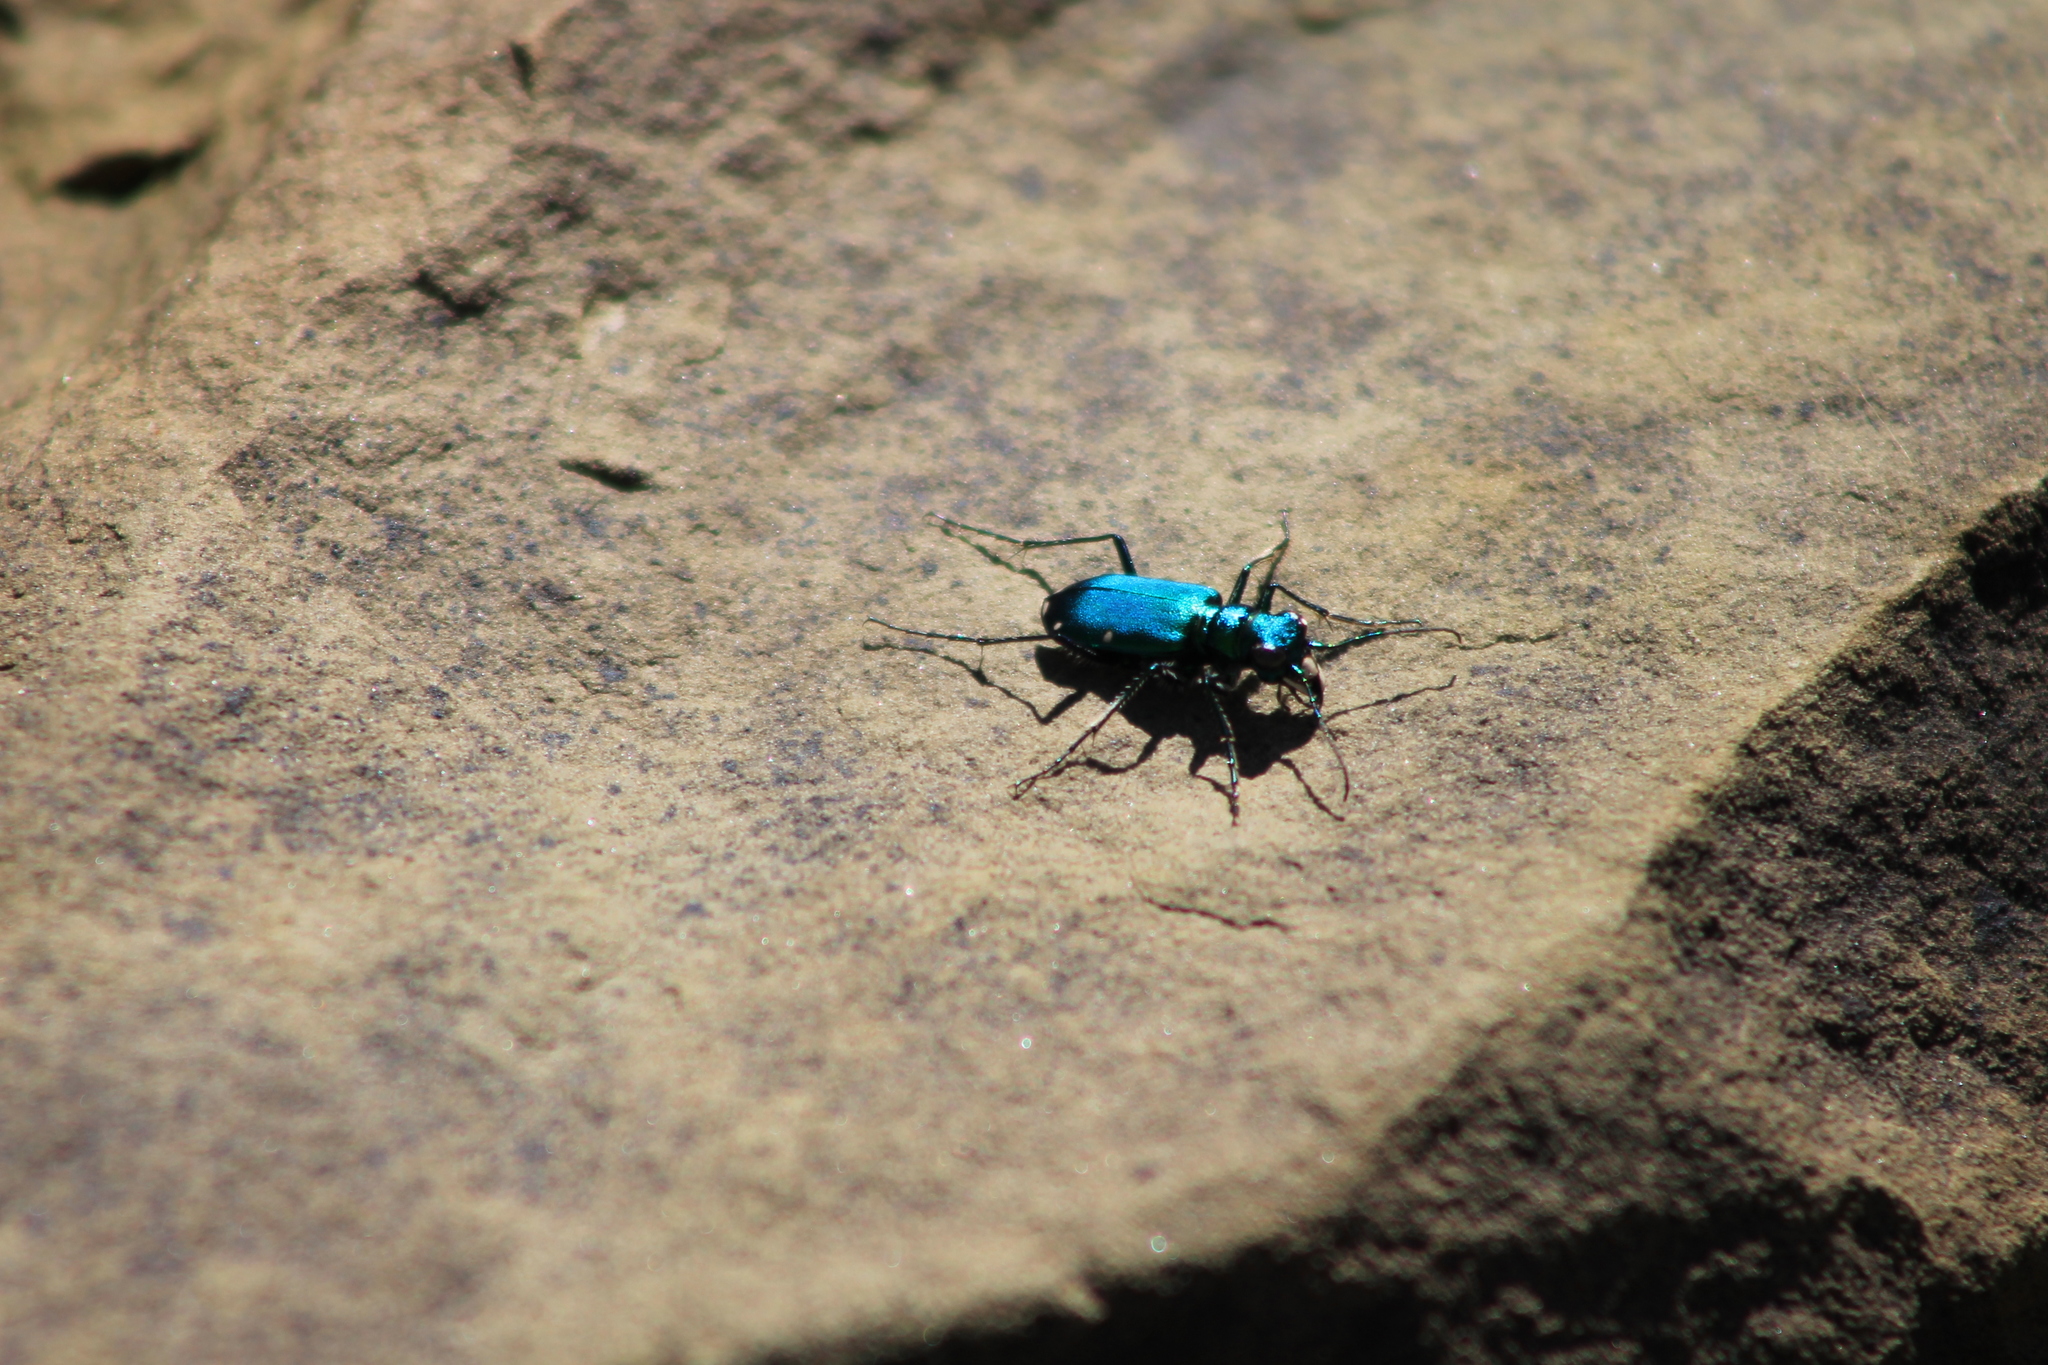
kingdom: Animalia
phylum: Arthropoda
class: Insecta
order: Coleoptera
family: Carabidae
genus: Cicindela
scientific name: Cicindela sexguttata
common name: Six-spotted tiger beetle
